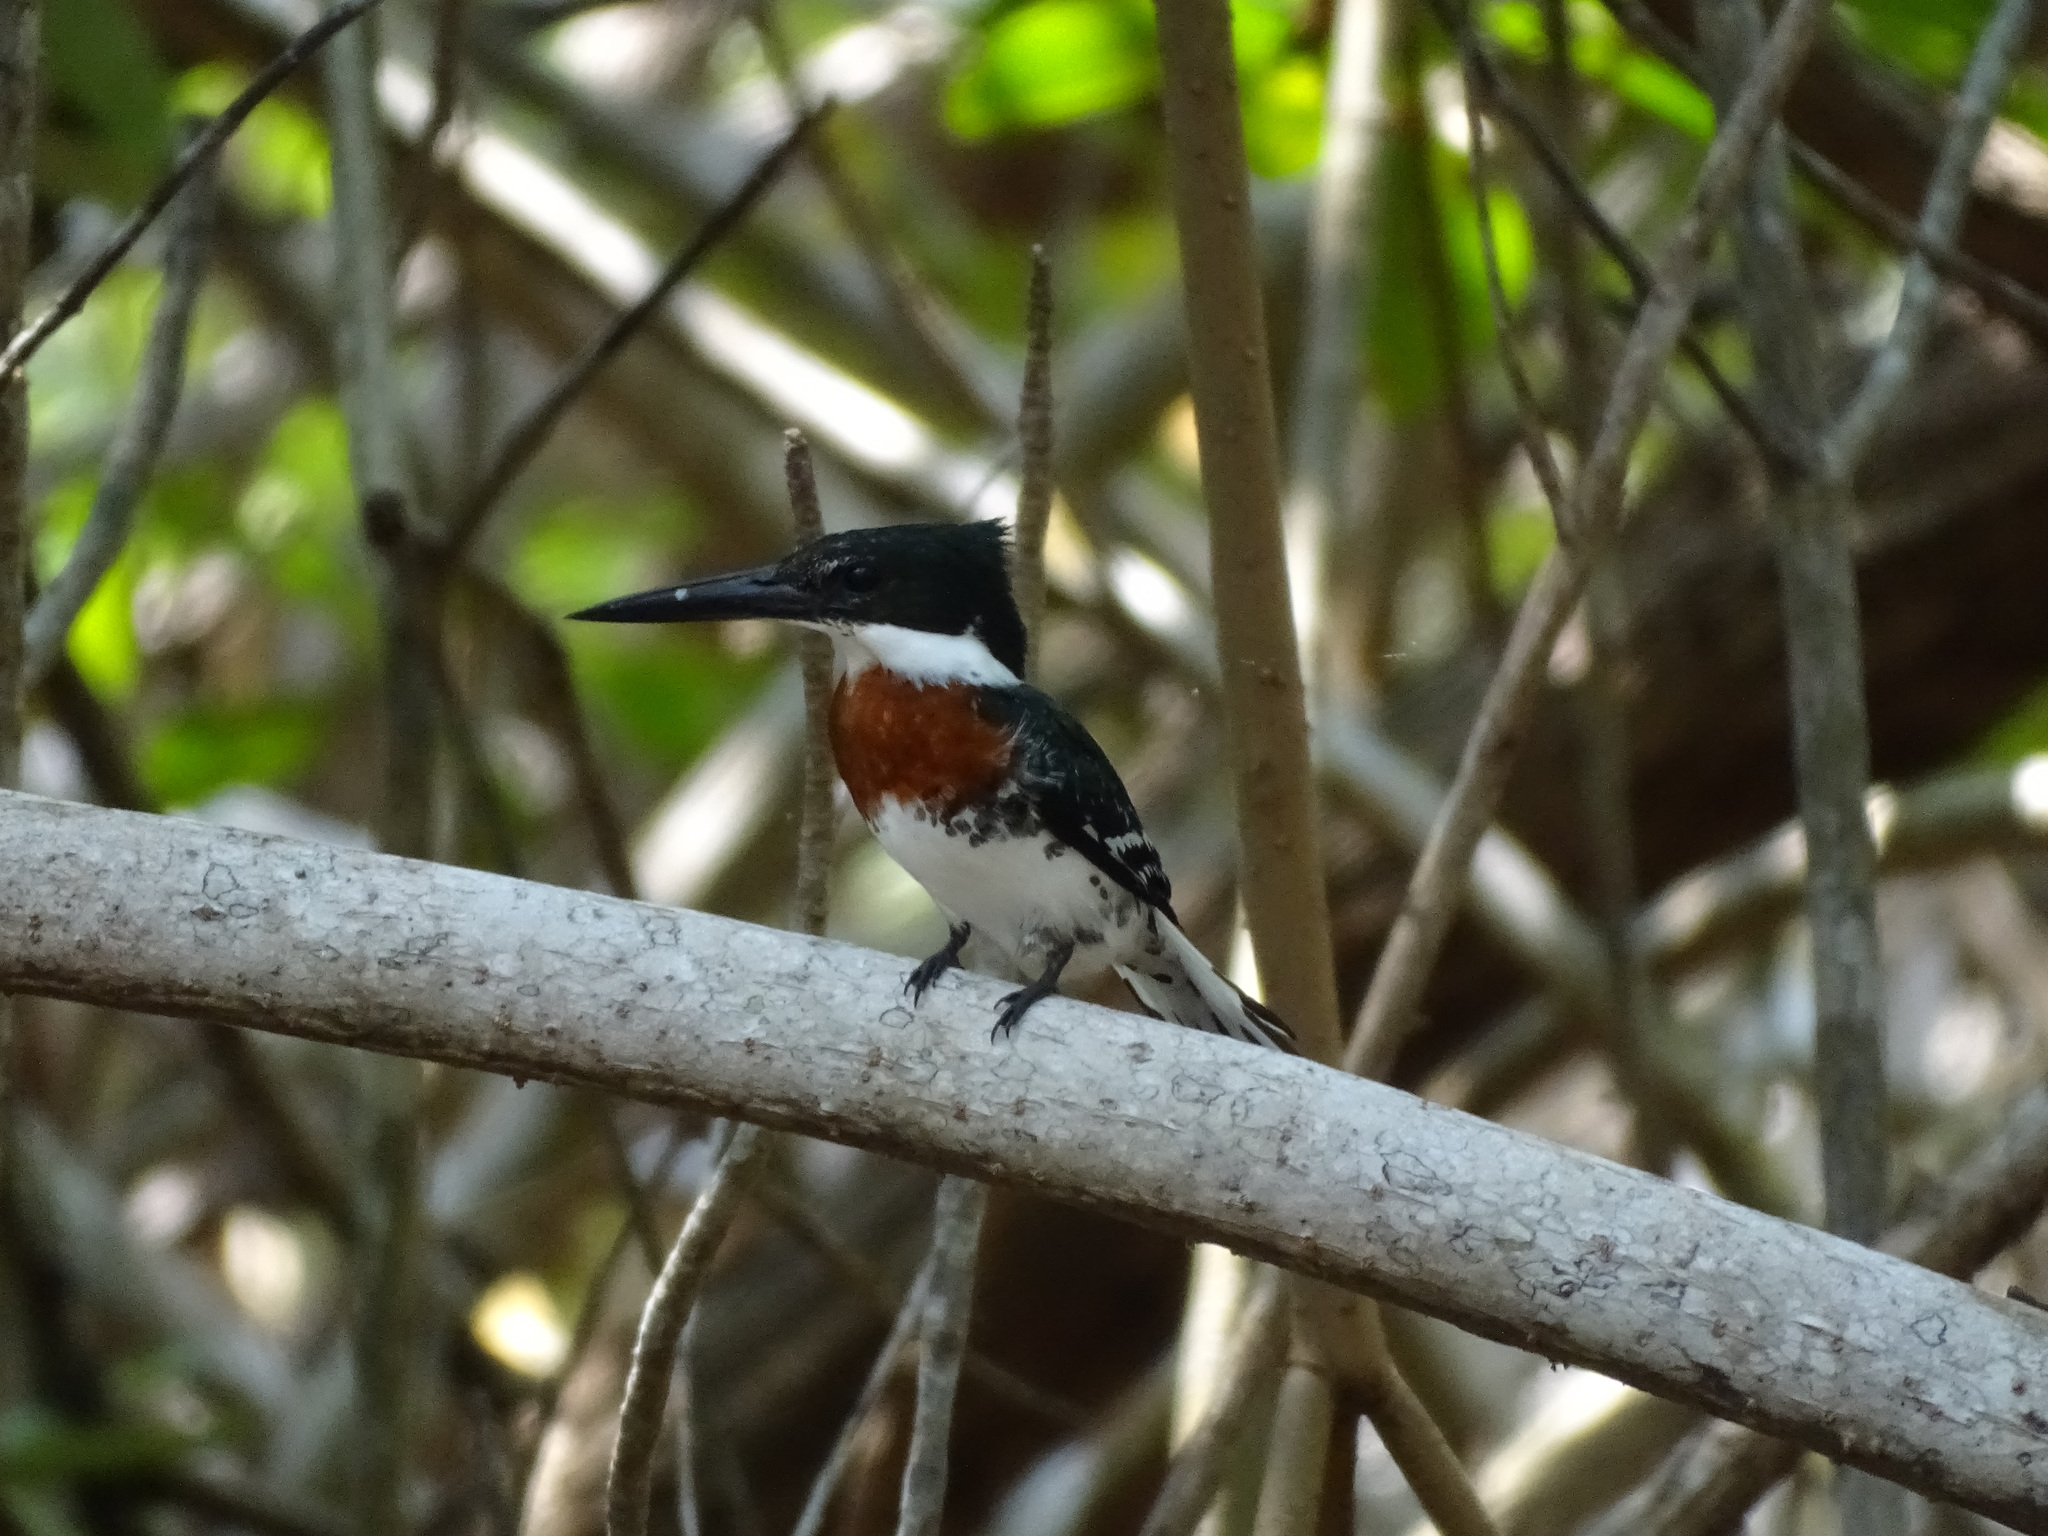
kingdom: Animalia
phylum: Chordata
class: Aves
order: Coraciiformes
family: Alcedinidae
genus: Chloroceryle
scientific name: Chloroceryle americana
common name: Green kingfisher
